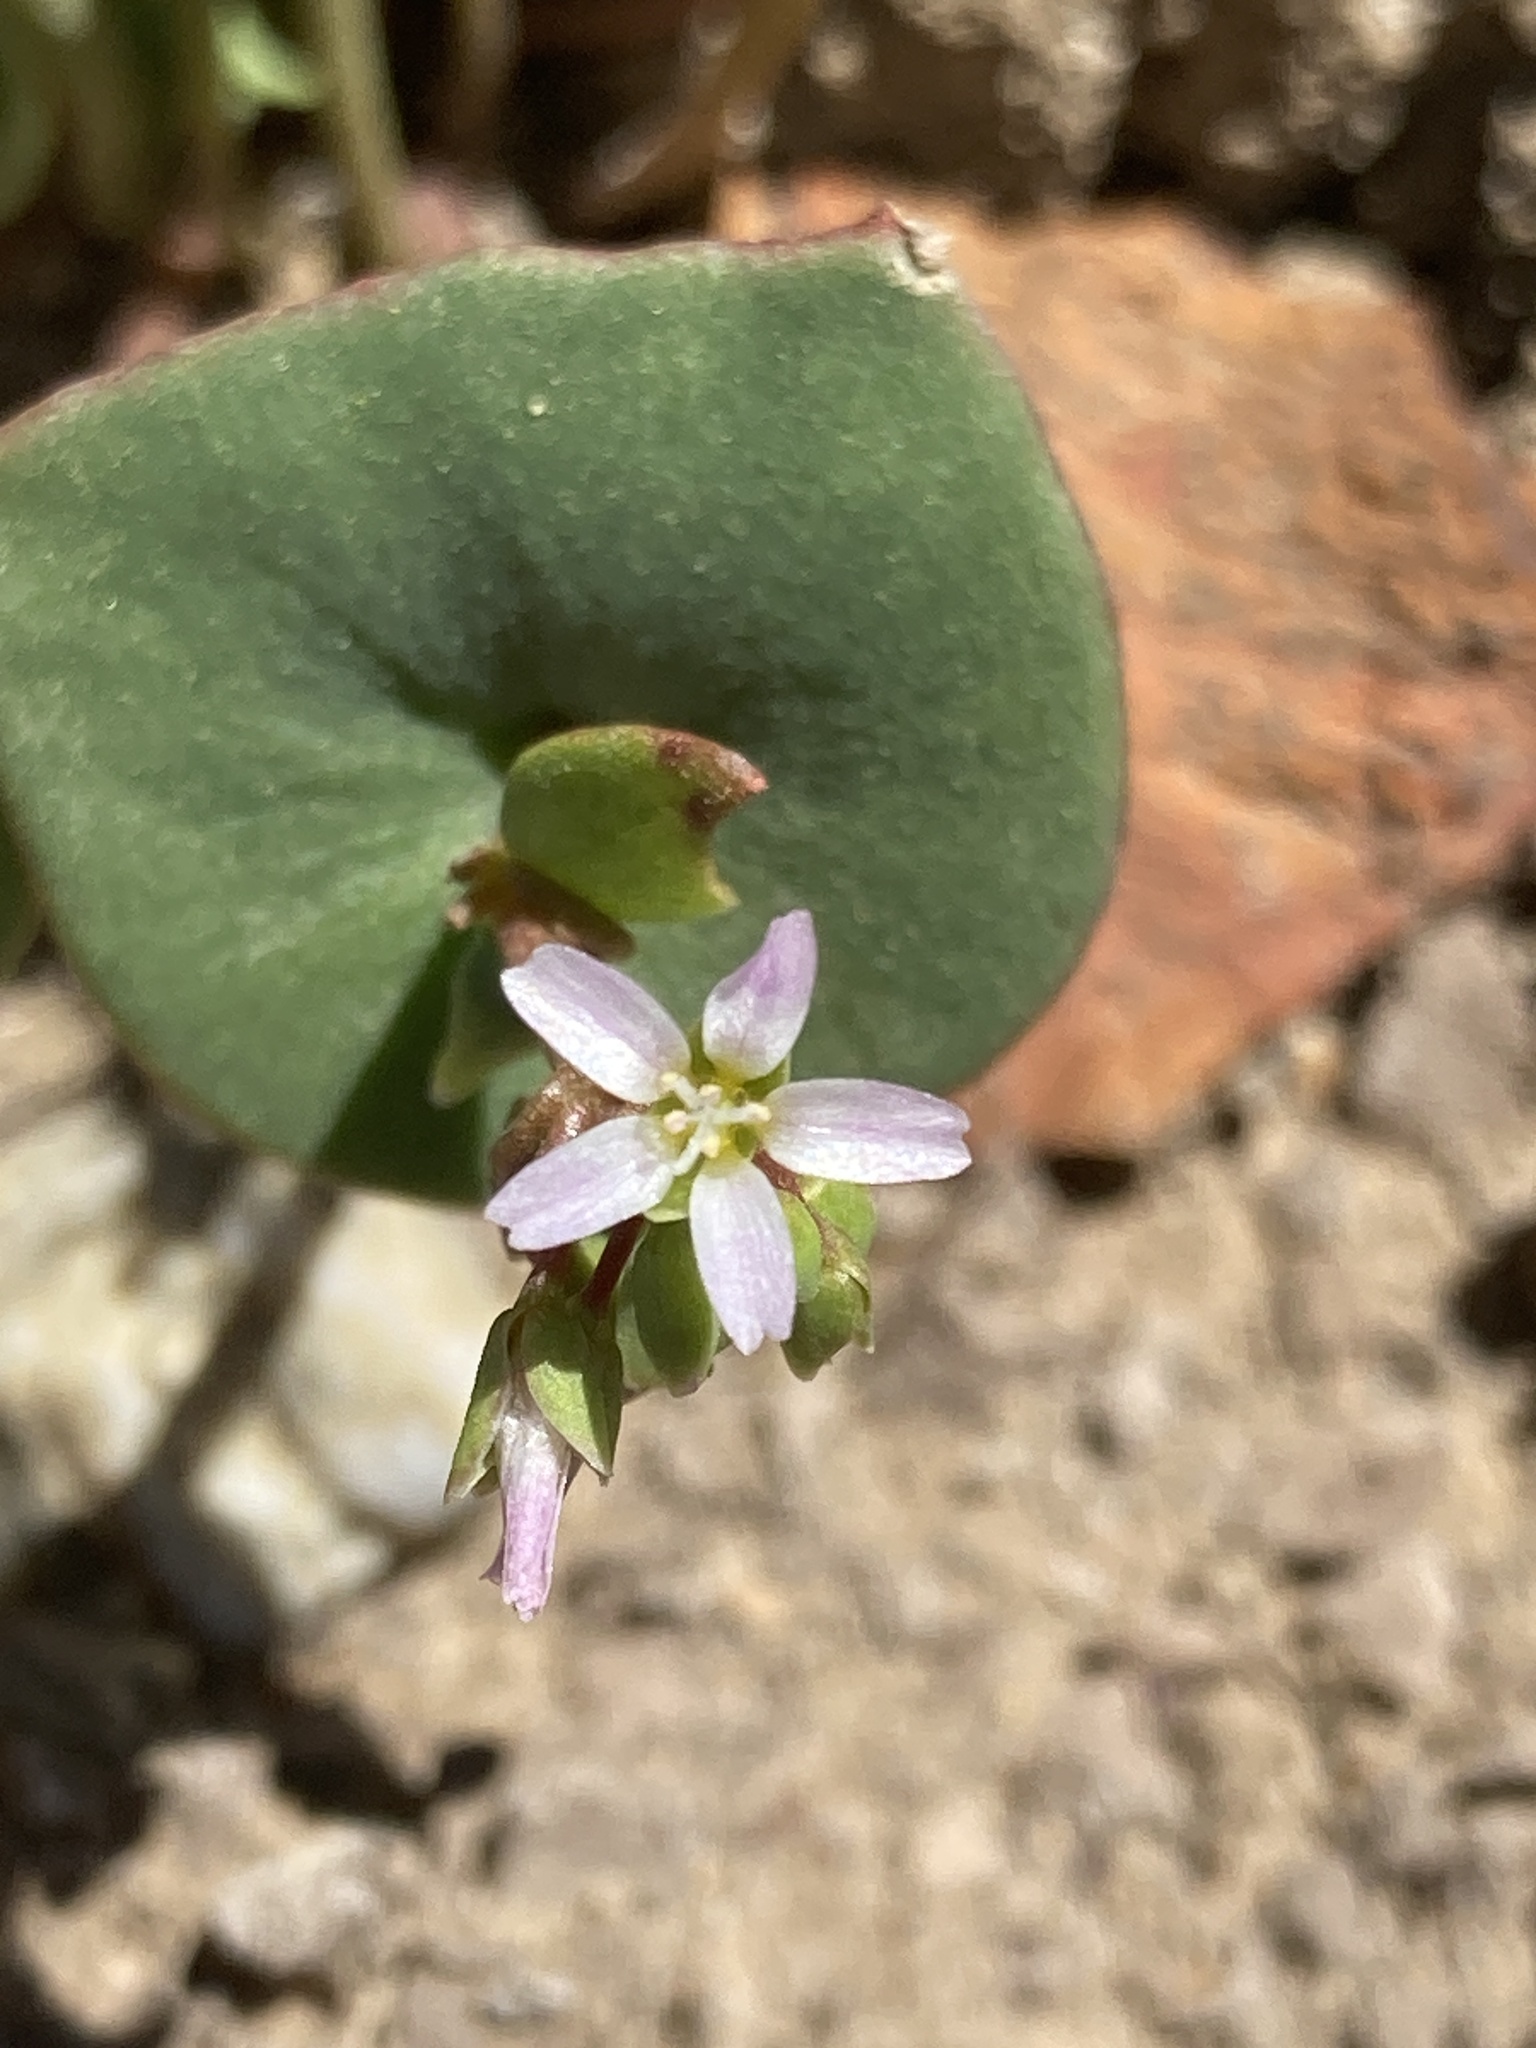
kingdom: Plantae
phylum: Tracheophyta
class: Magnoliopsida
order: Caryophyllales
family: Montiaceae
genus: Claytonia
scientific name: Claytonia parviflora
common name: Indian-lettuce
